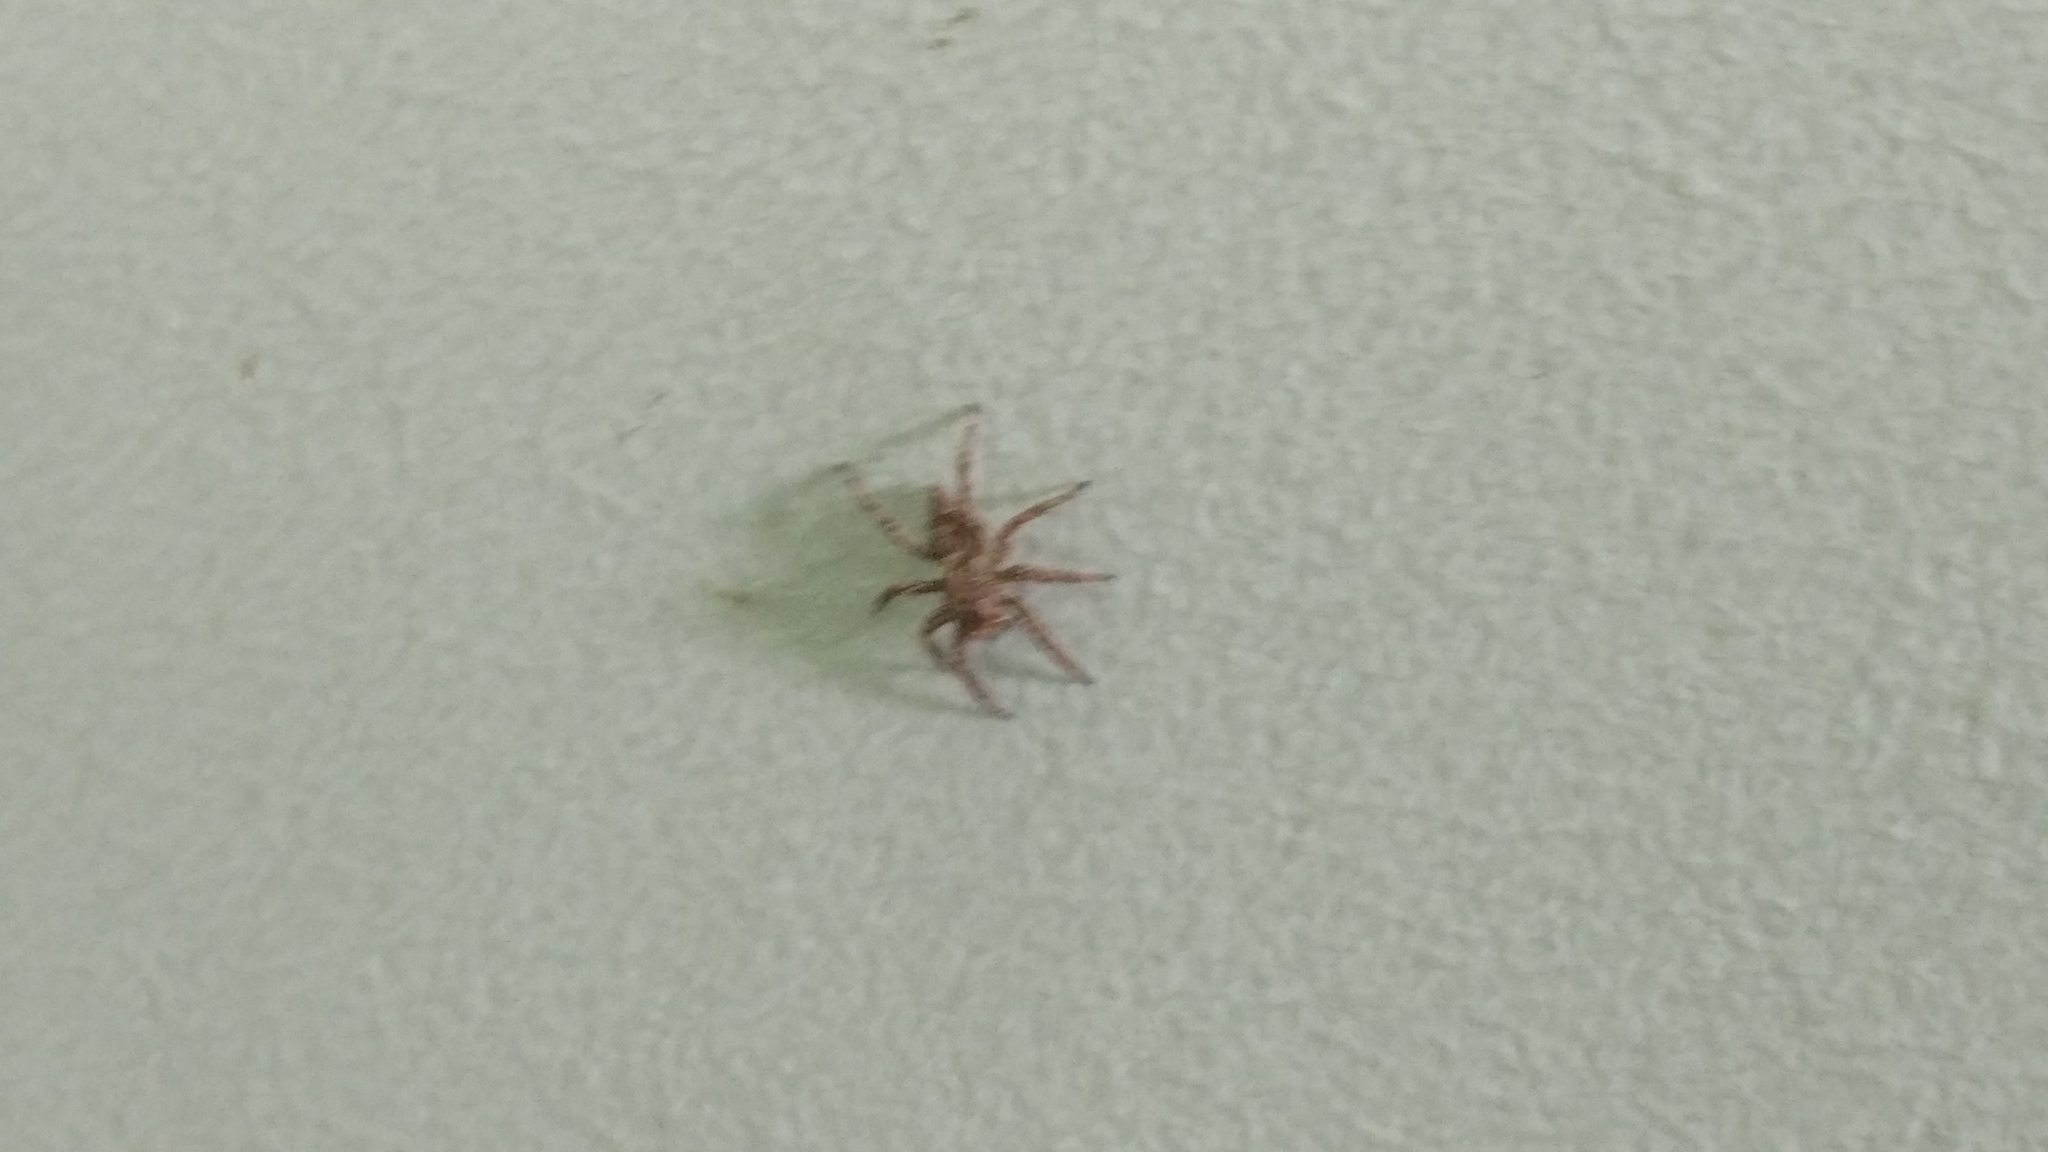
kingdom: Animalia
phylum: Arthropoda
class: Arachnida
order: Araneae
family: Salticidae
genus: Plexippus
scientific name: Plexippus petersi
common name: Jumping spider
